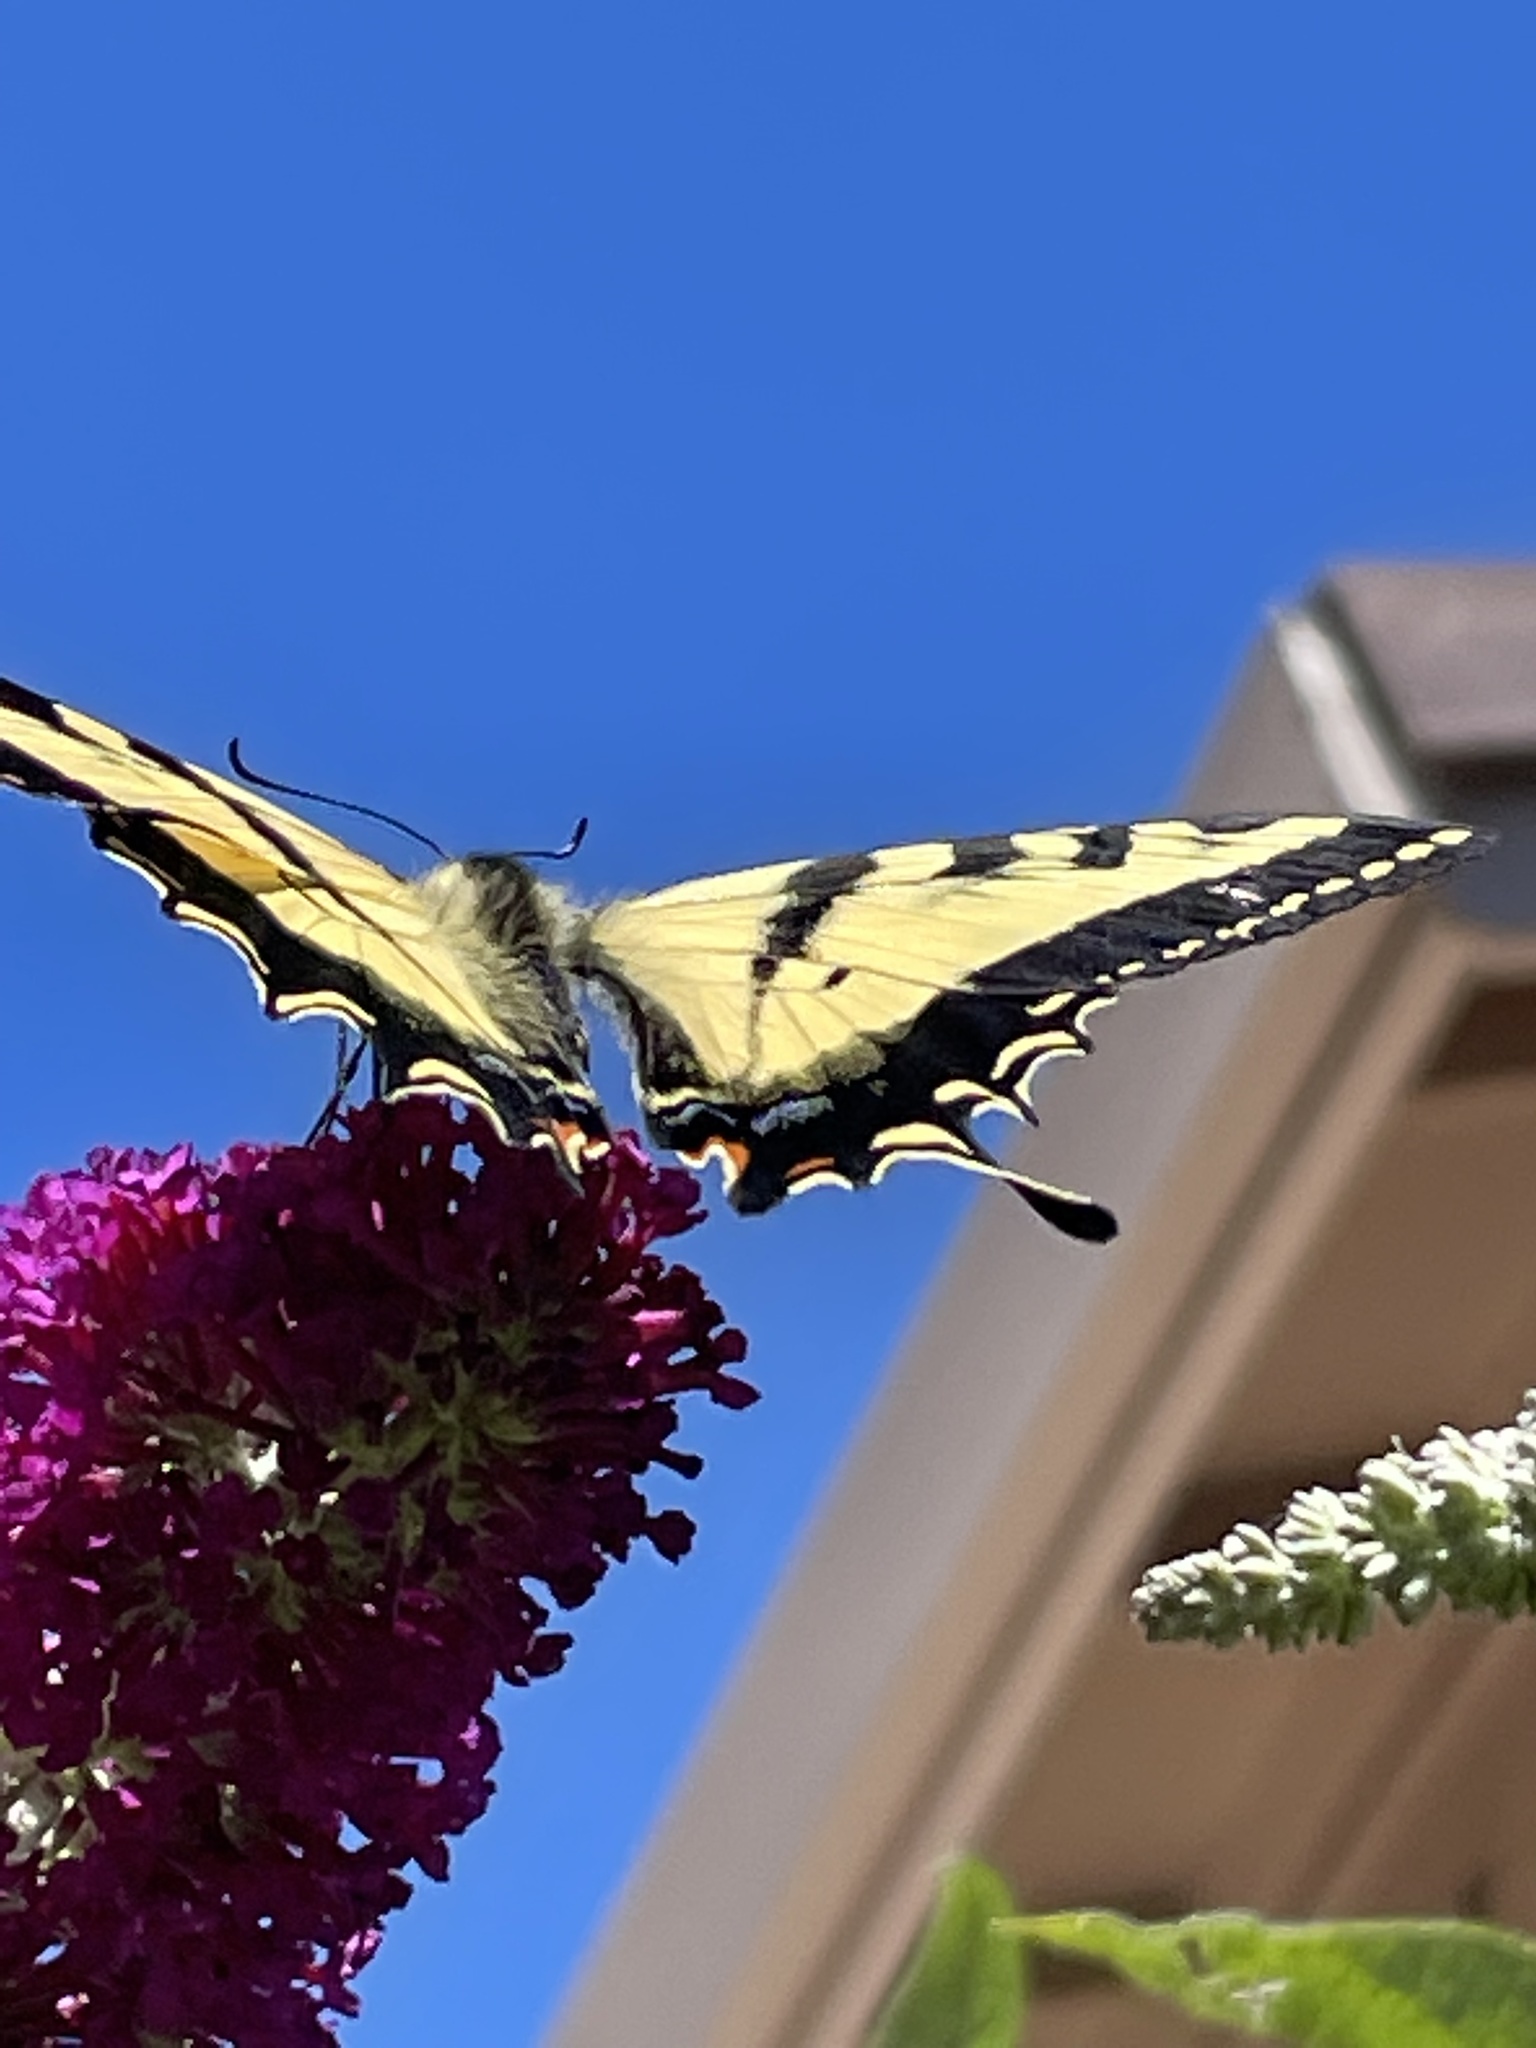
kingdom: Animalia
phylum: Arthropoda
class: Insecta
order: Lepidoptera
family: Papilionidae
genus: Papilio
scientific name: Papilio rutulus
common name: Western tiger swallowtail
